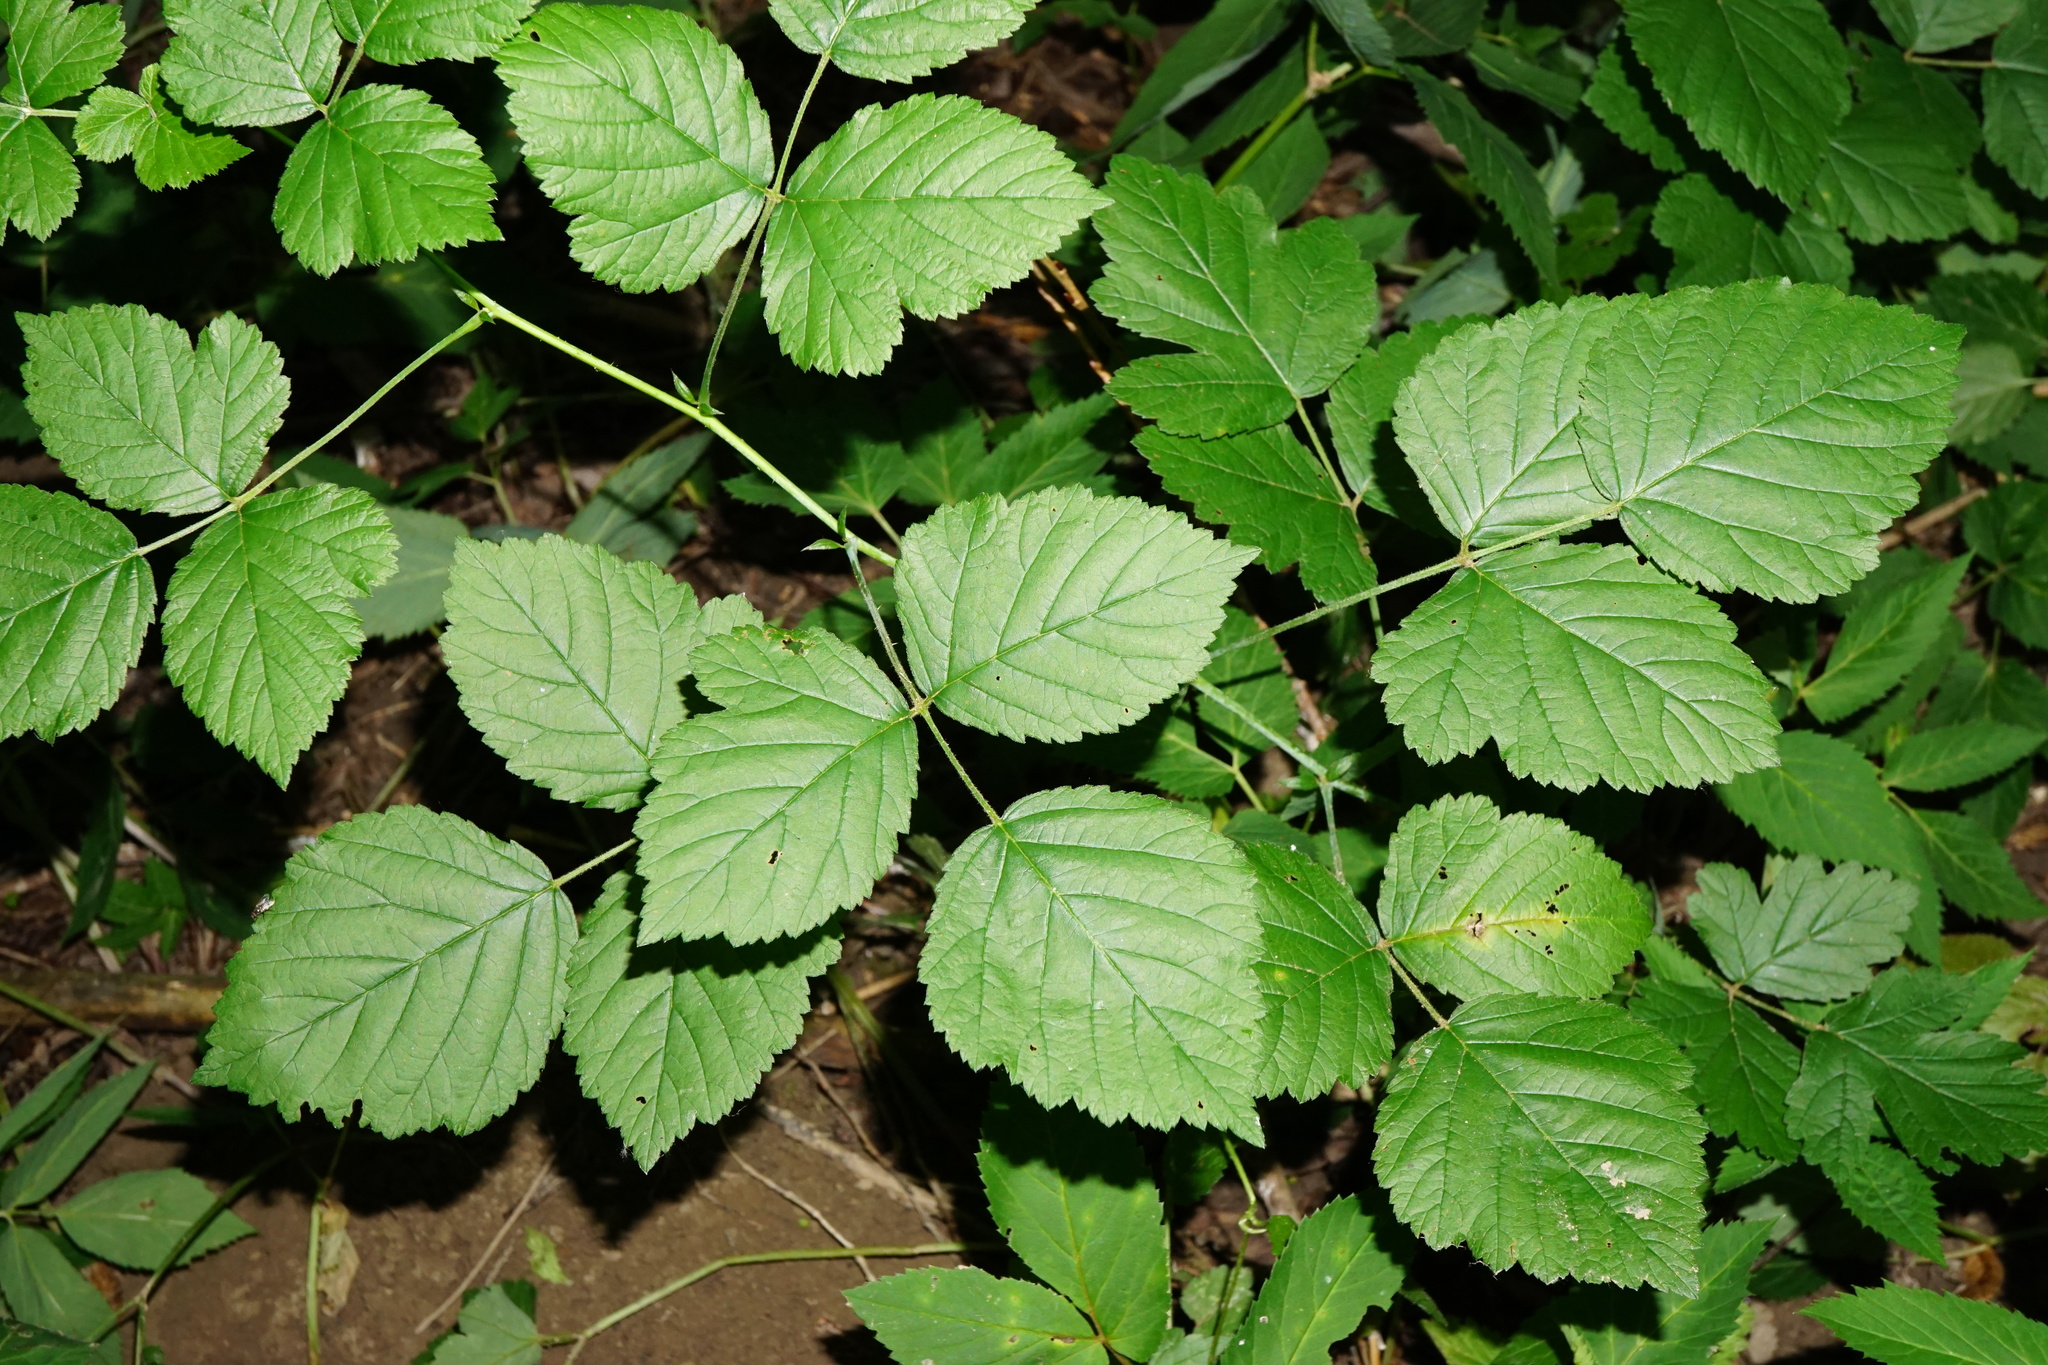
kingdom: Plantae
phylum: Tracheophyta
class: Magnoliopsida
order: Rosales
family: Rosaceae
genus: Rubus
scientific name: Rubus caesius
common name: Dewberry
